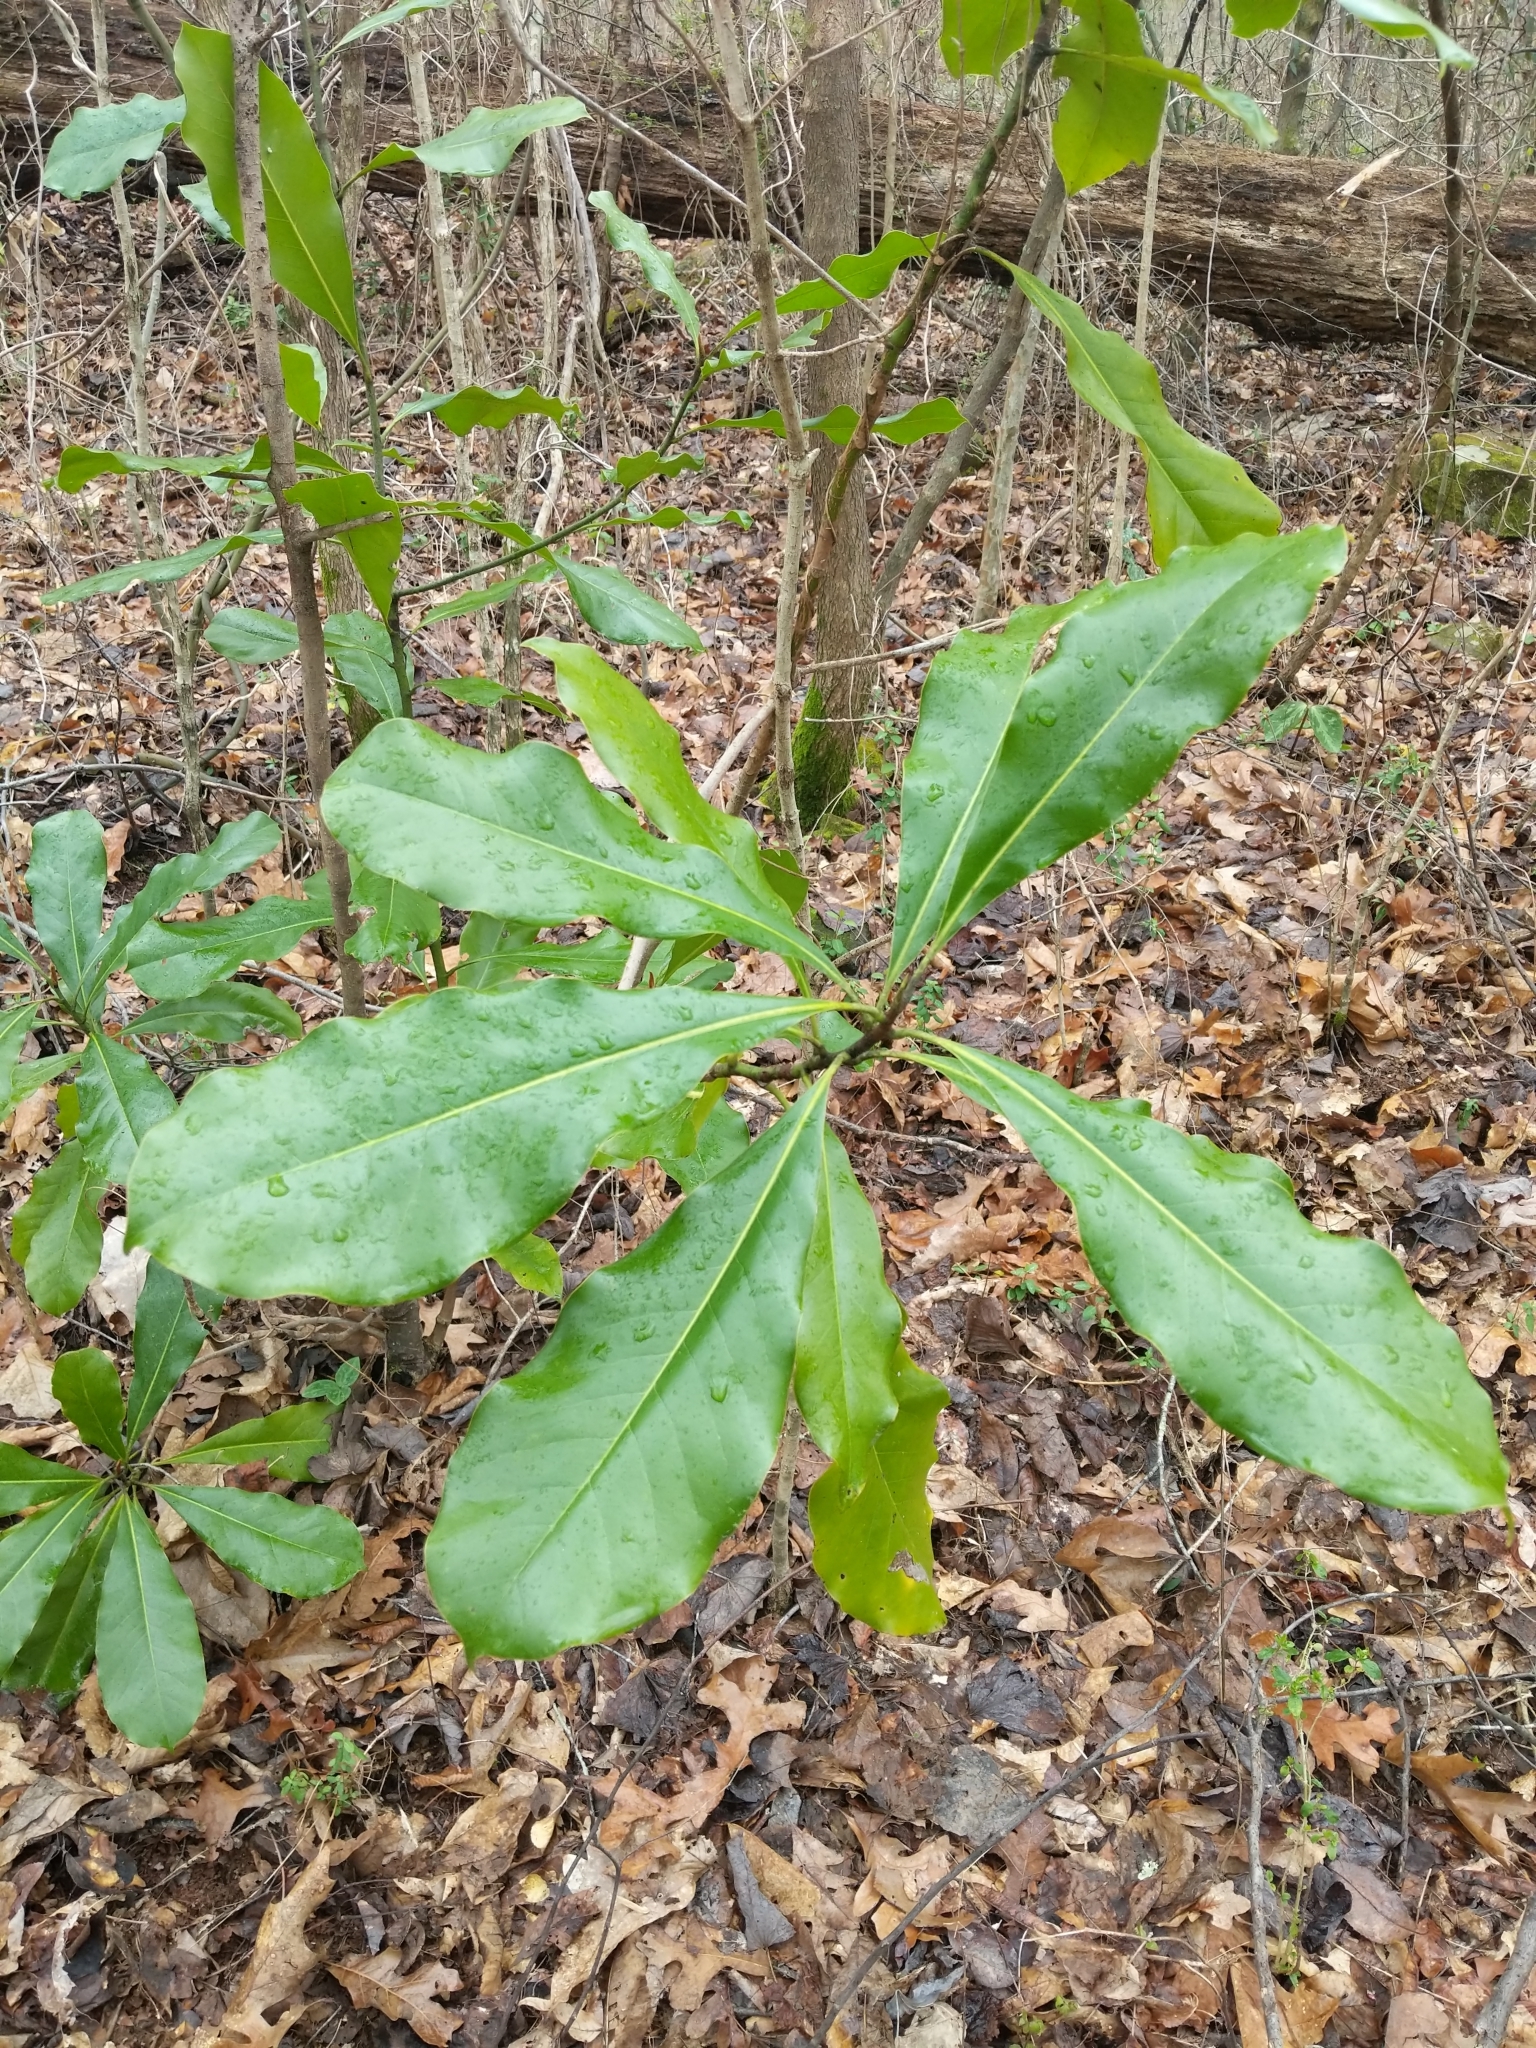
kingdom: Plantae
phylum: Tracheophyta
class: Magnoliopsida
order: Magnoliales
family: Magnoliaceae
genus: Magnolia
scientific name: Magnolia grandiflora
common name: Southern magnolia
